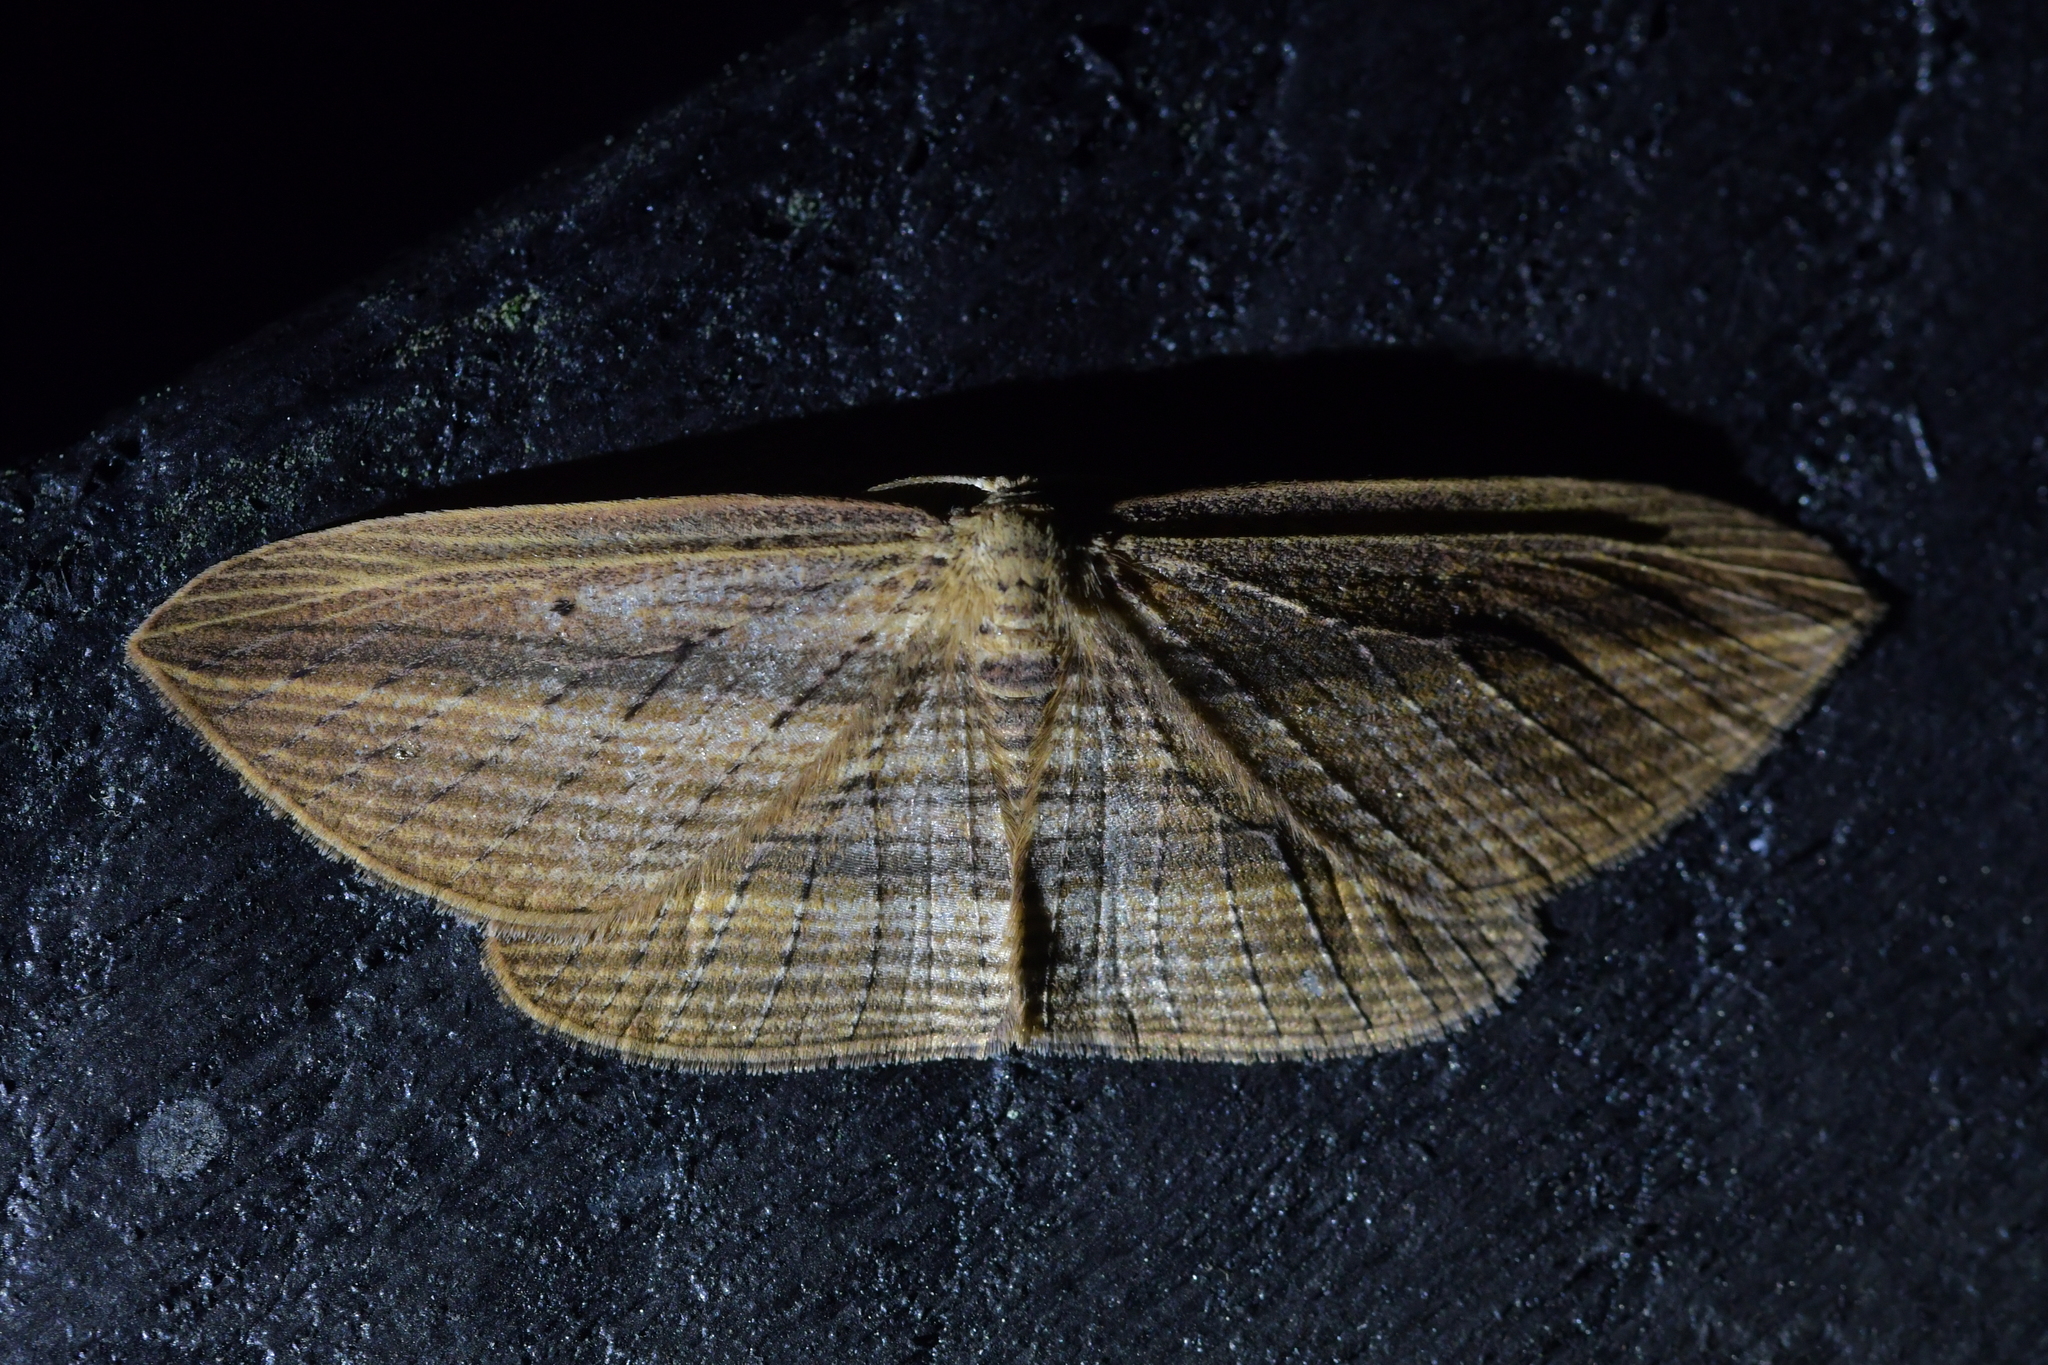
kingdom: Animalia
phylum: Arthropoda
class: Insecta
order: Lepidoptera
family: Geometridae
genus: Epiphryne
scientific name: Epiphryne verriculata
